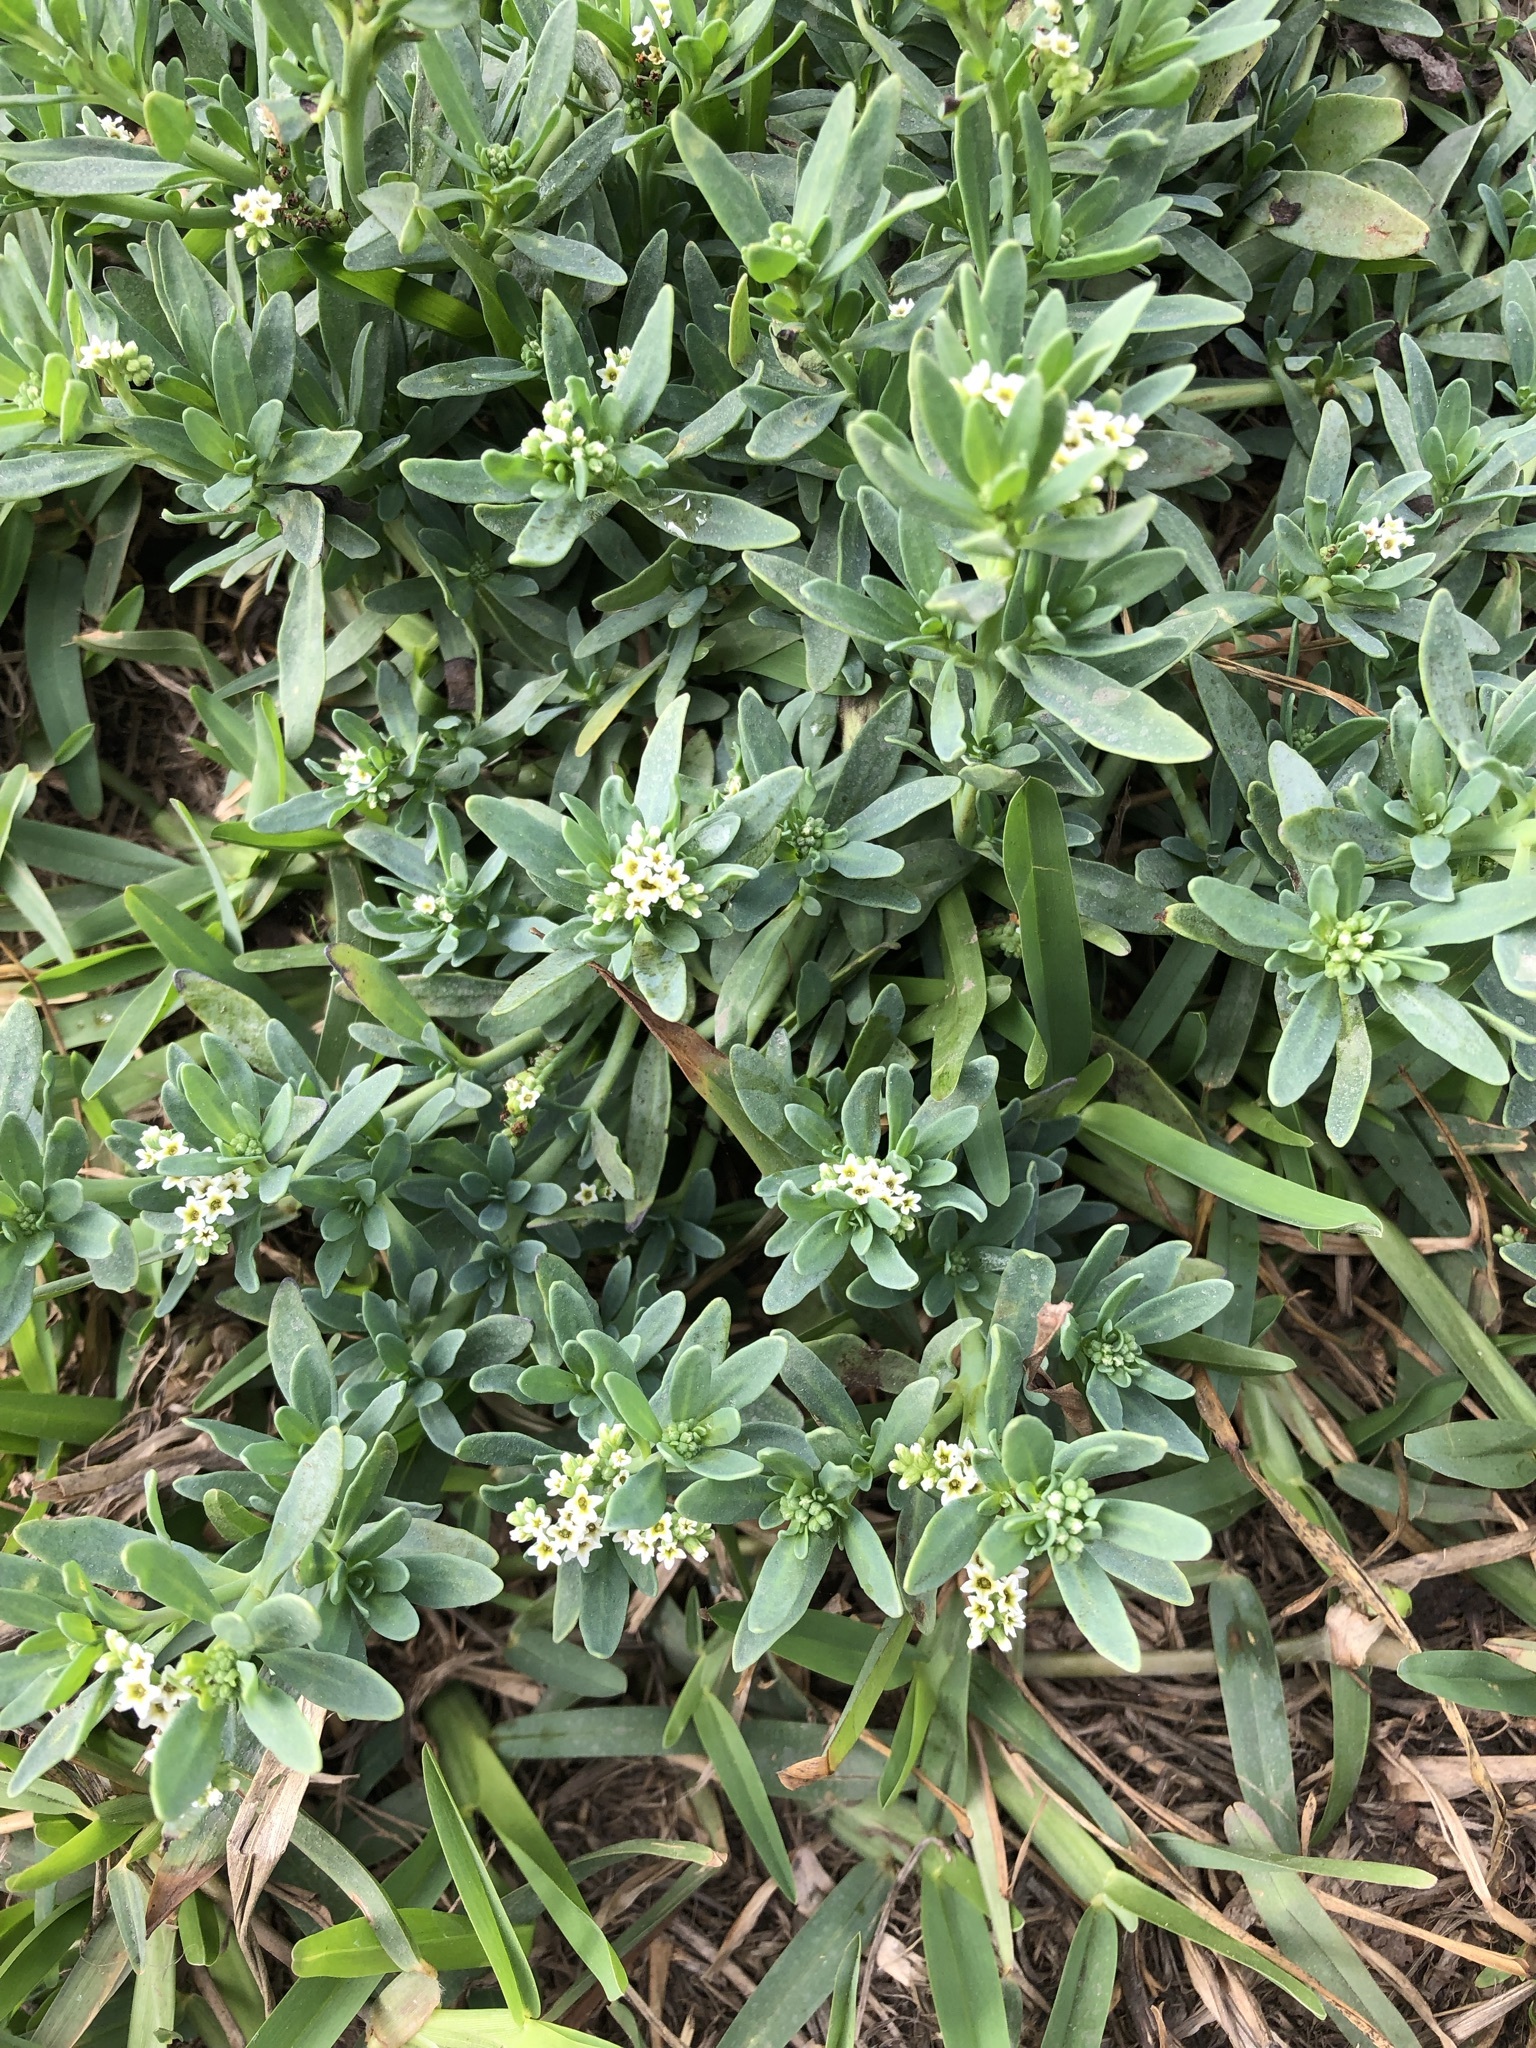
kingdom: Plantae
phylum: Tracheophyta
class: Magnoliopsida
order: Boraginales
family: Heliotropiaceae
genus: Heliotropium
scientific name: Heliotropium curassavicum
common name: Seaside heliotrope
